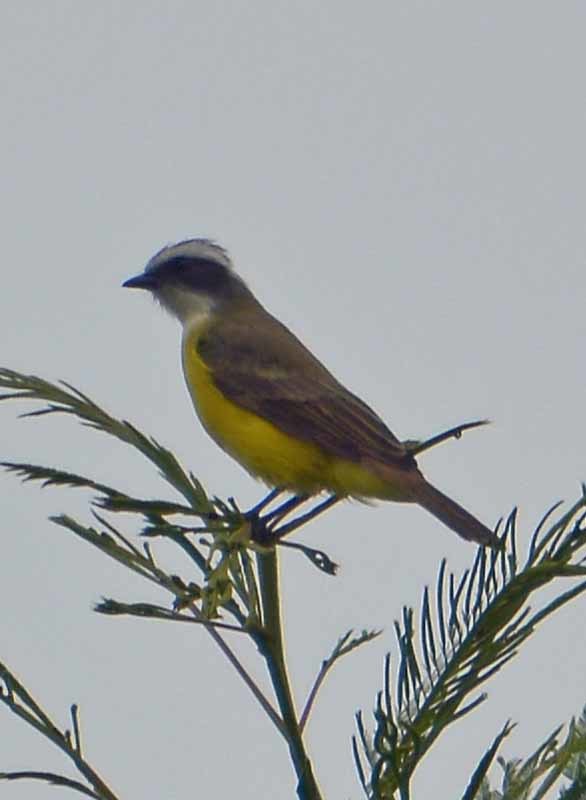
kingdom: Animalia
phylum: Chordata
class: Aves
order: Passeriformes
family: Tyrannidae
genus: Myiozetetes
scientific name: Myiozetetes similis
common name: Social flycatcher
